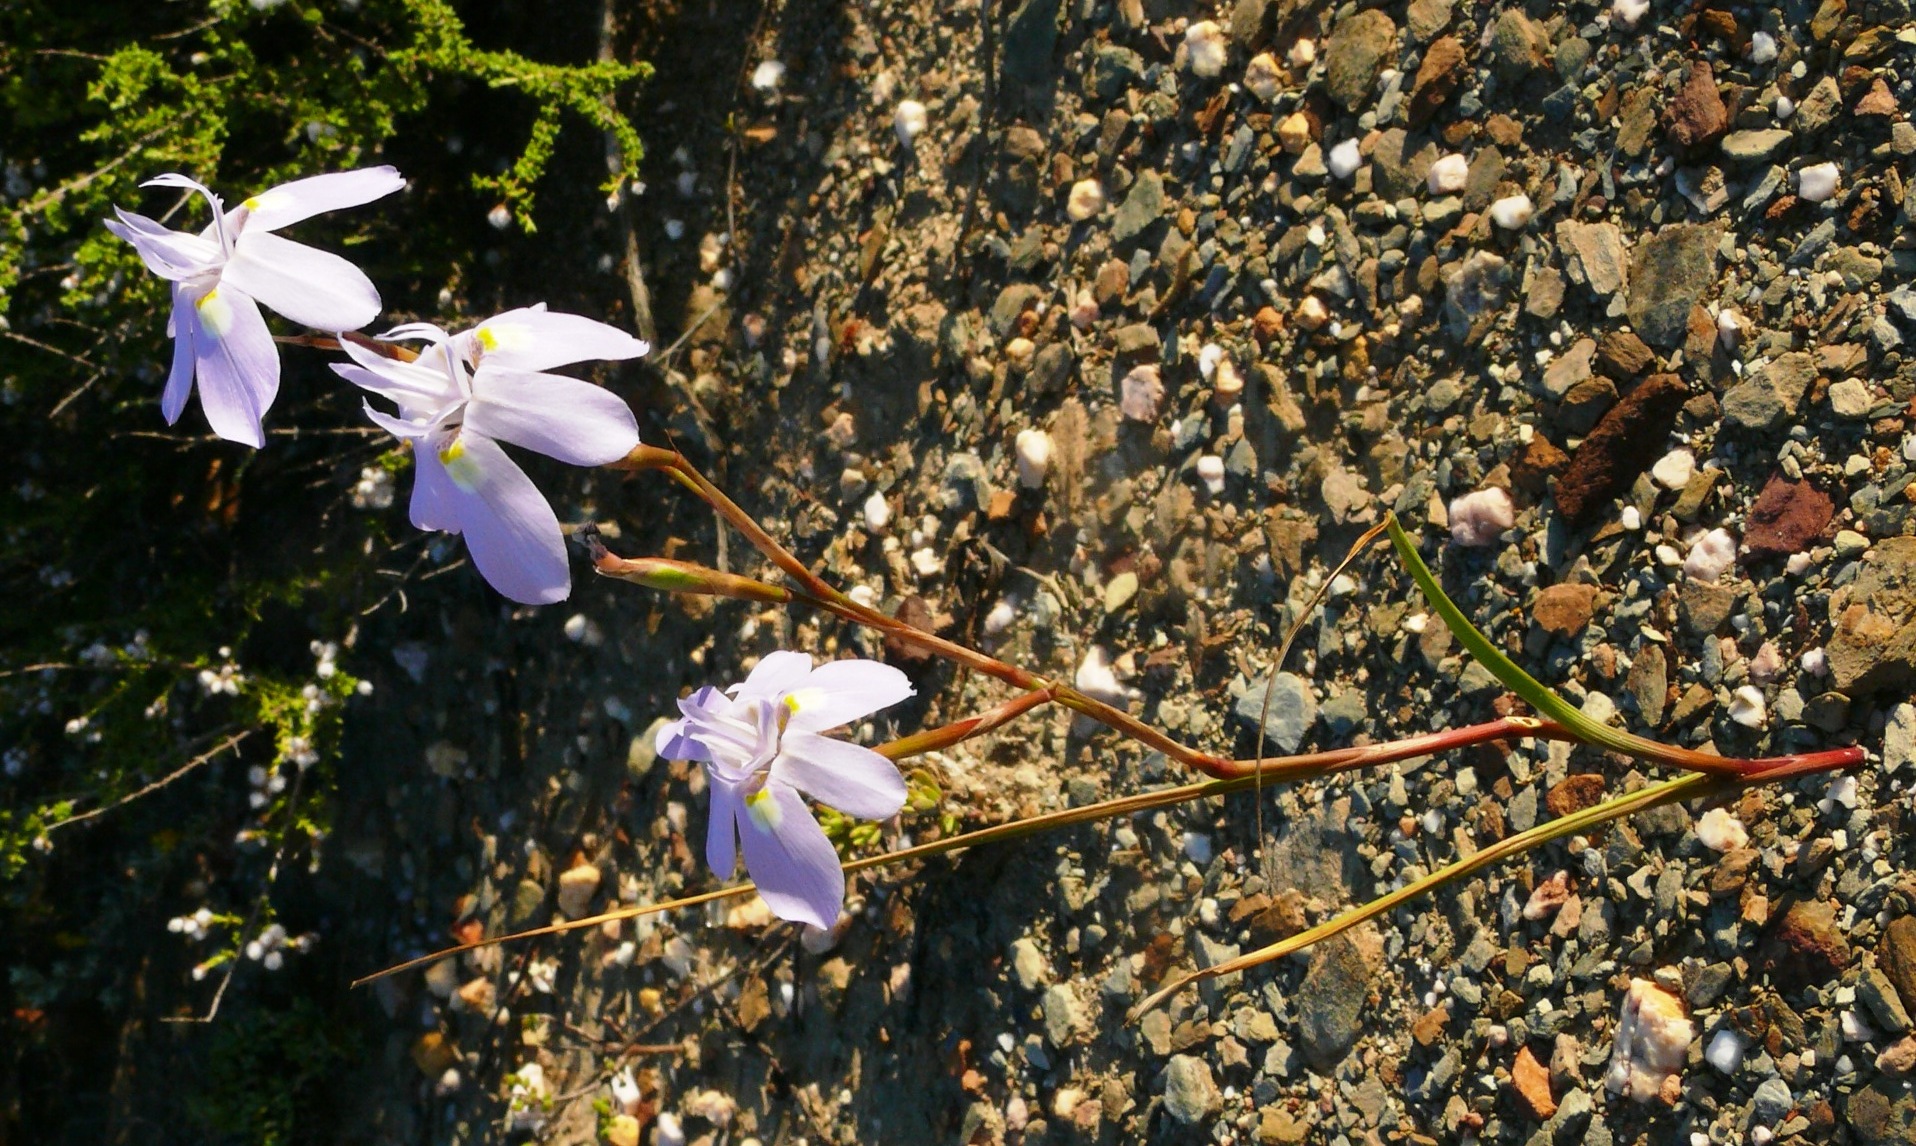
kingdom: Plantae
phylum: Tracheophyta
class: Liliopsida
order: Asparagales
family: Iridaceae
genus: Moraea
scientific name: Moraea bipartita
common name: Blue tulp
